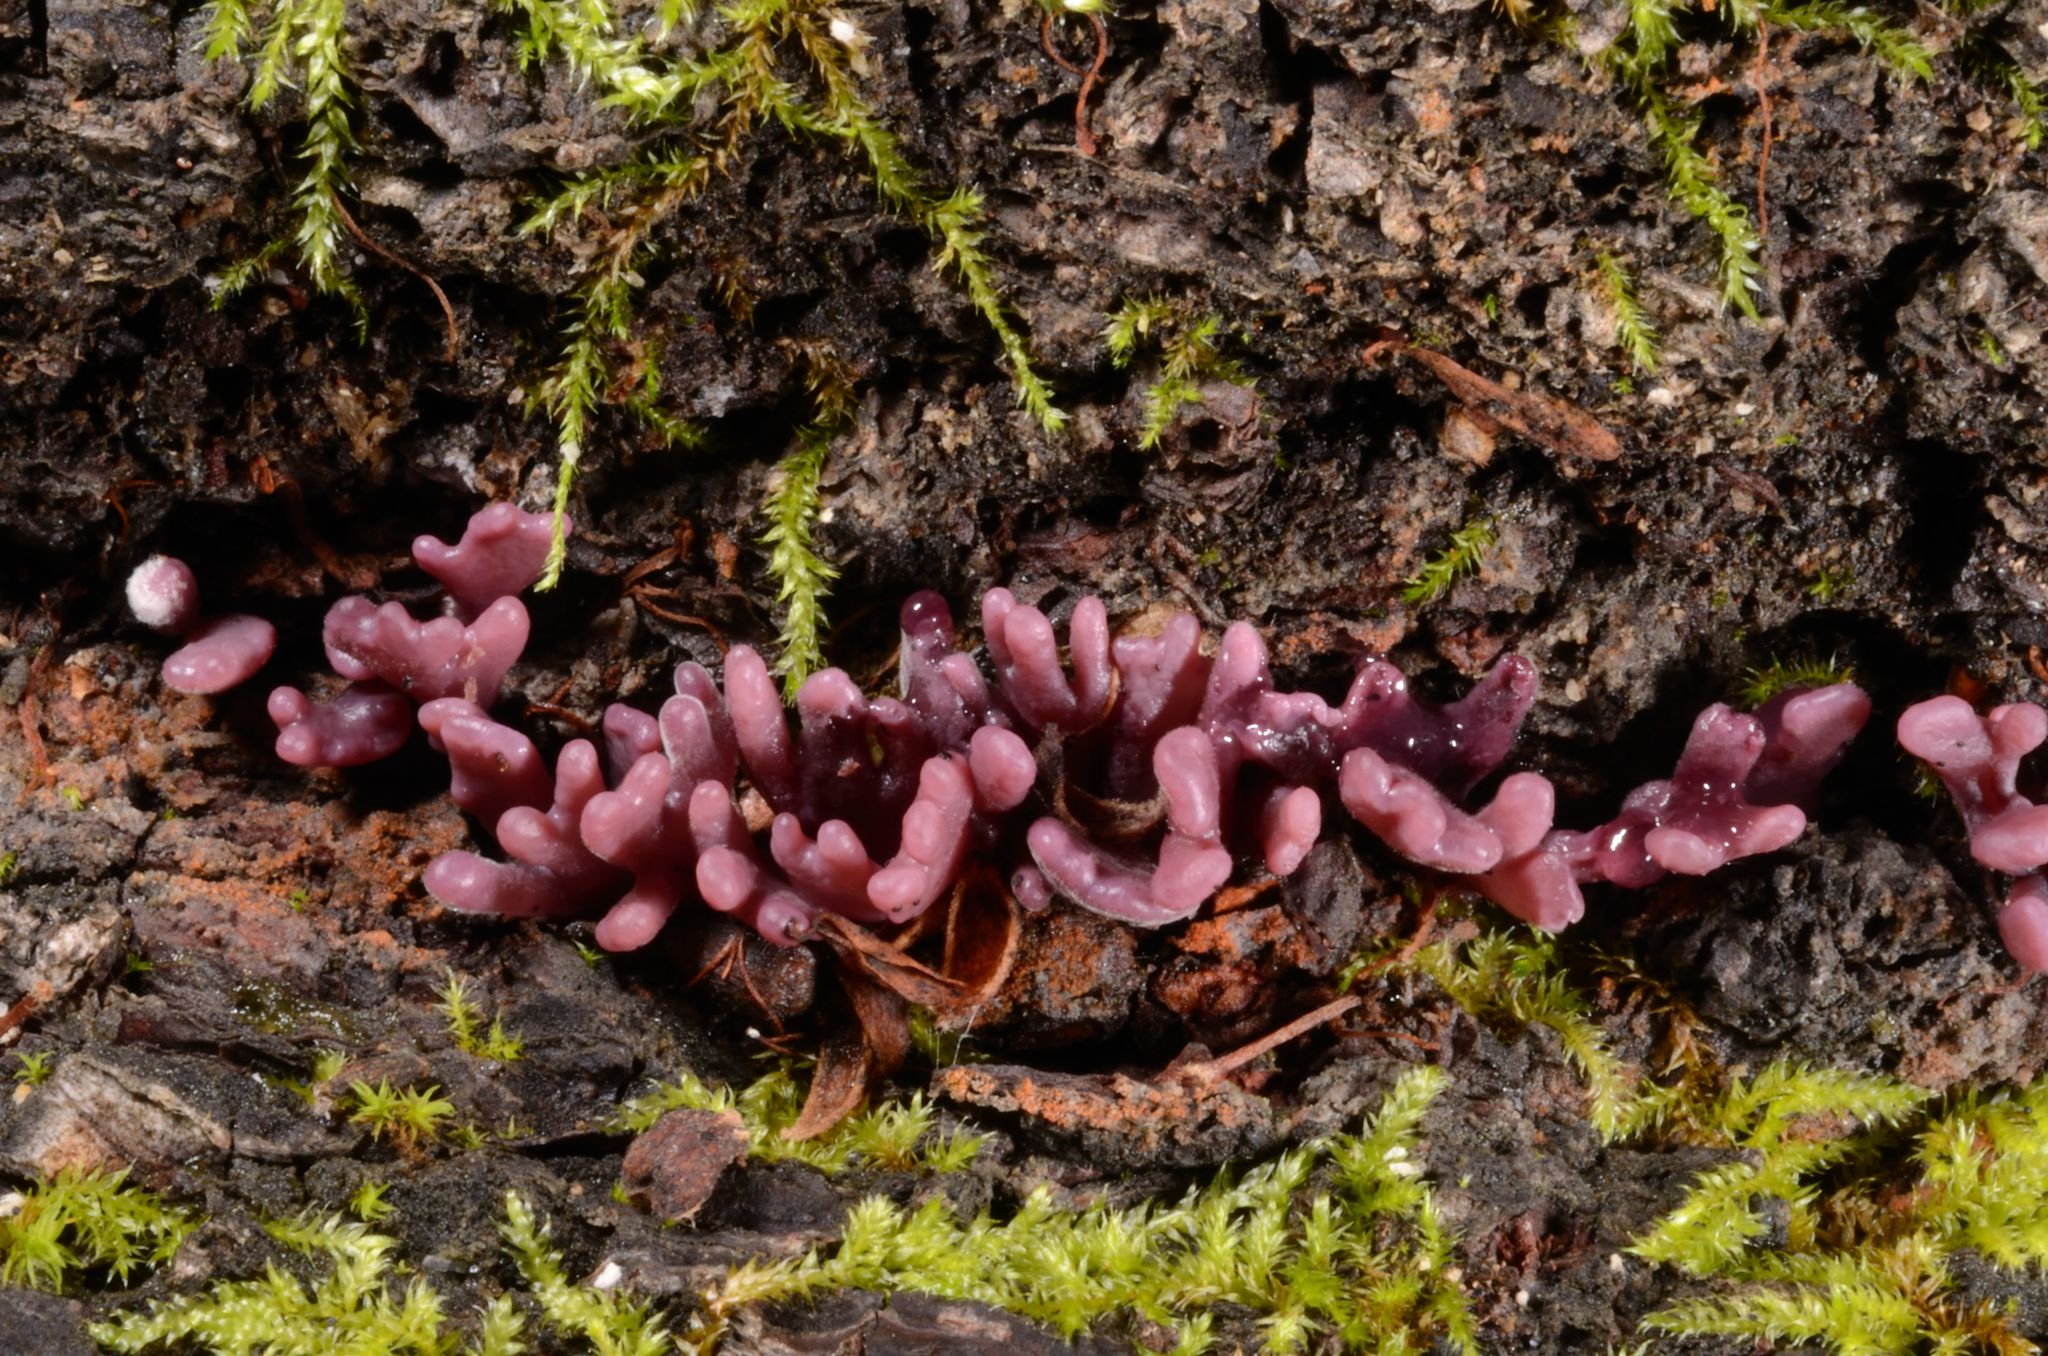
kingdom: Fungi
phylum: Ascomycota
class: Leotiomycetes
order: Helotiales
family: Gelatinodiscaceae
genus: Ascocoryne
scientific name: Ascocoryne sarcoides
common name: Purple jellydisc
